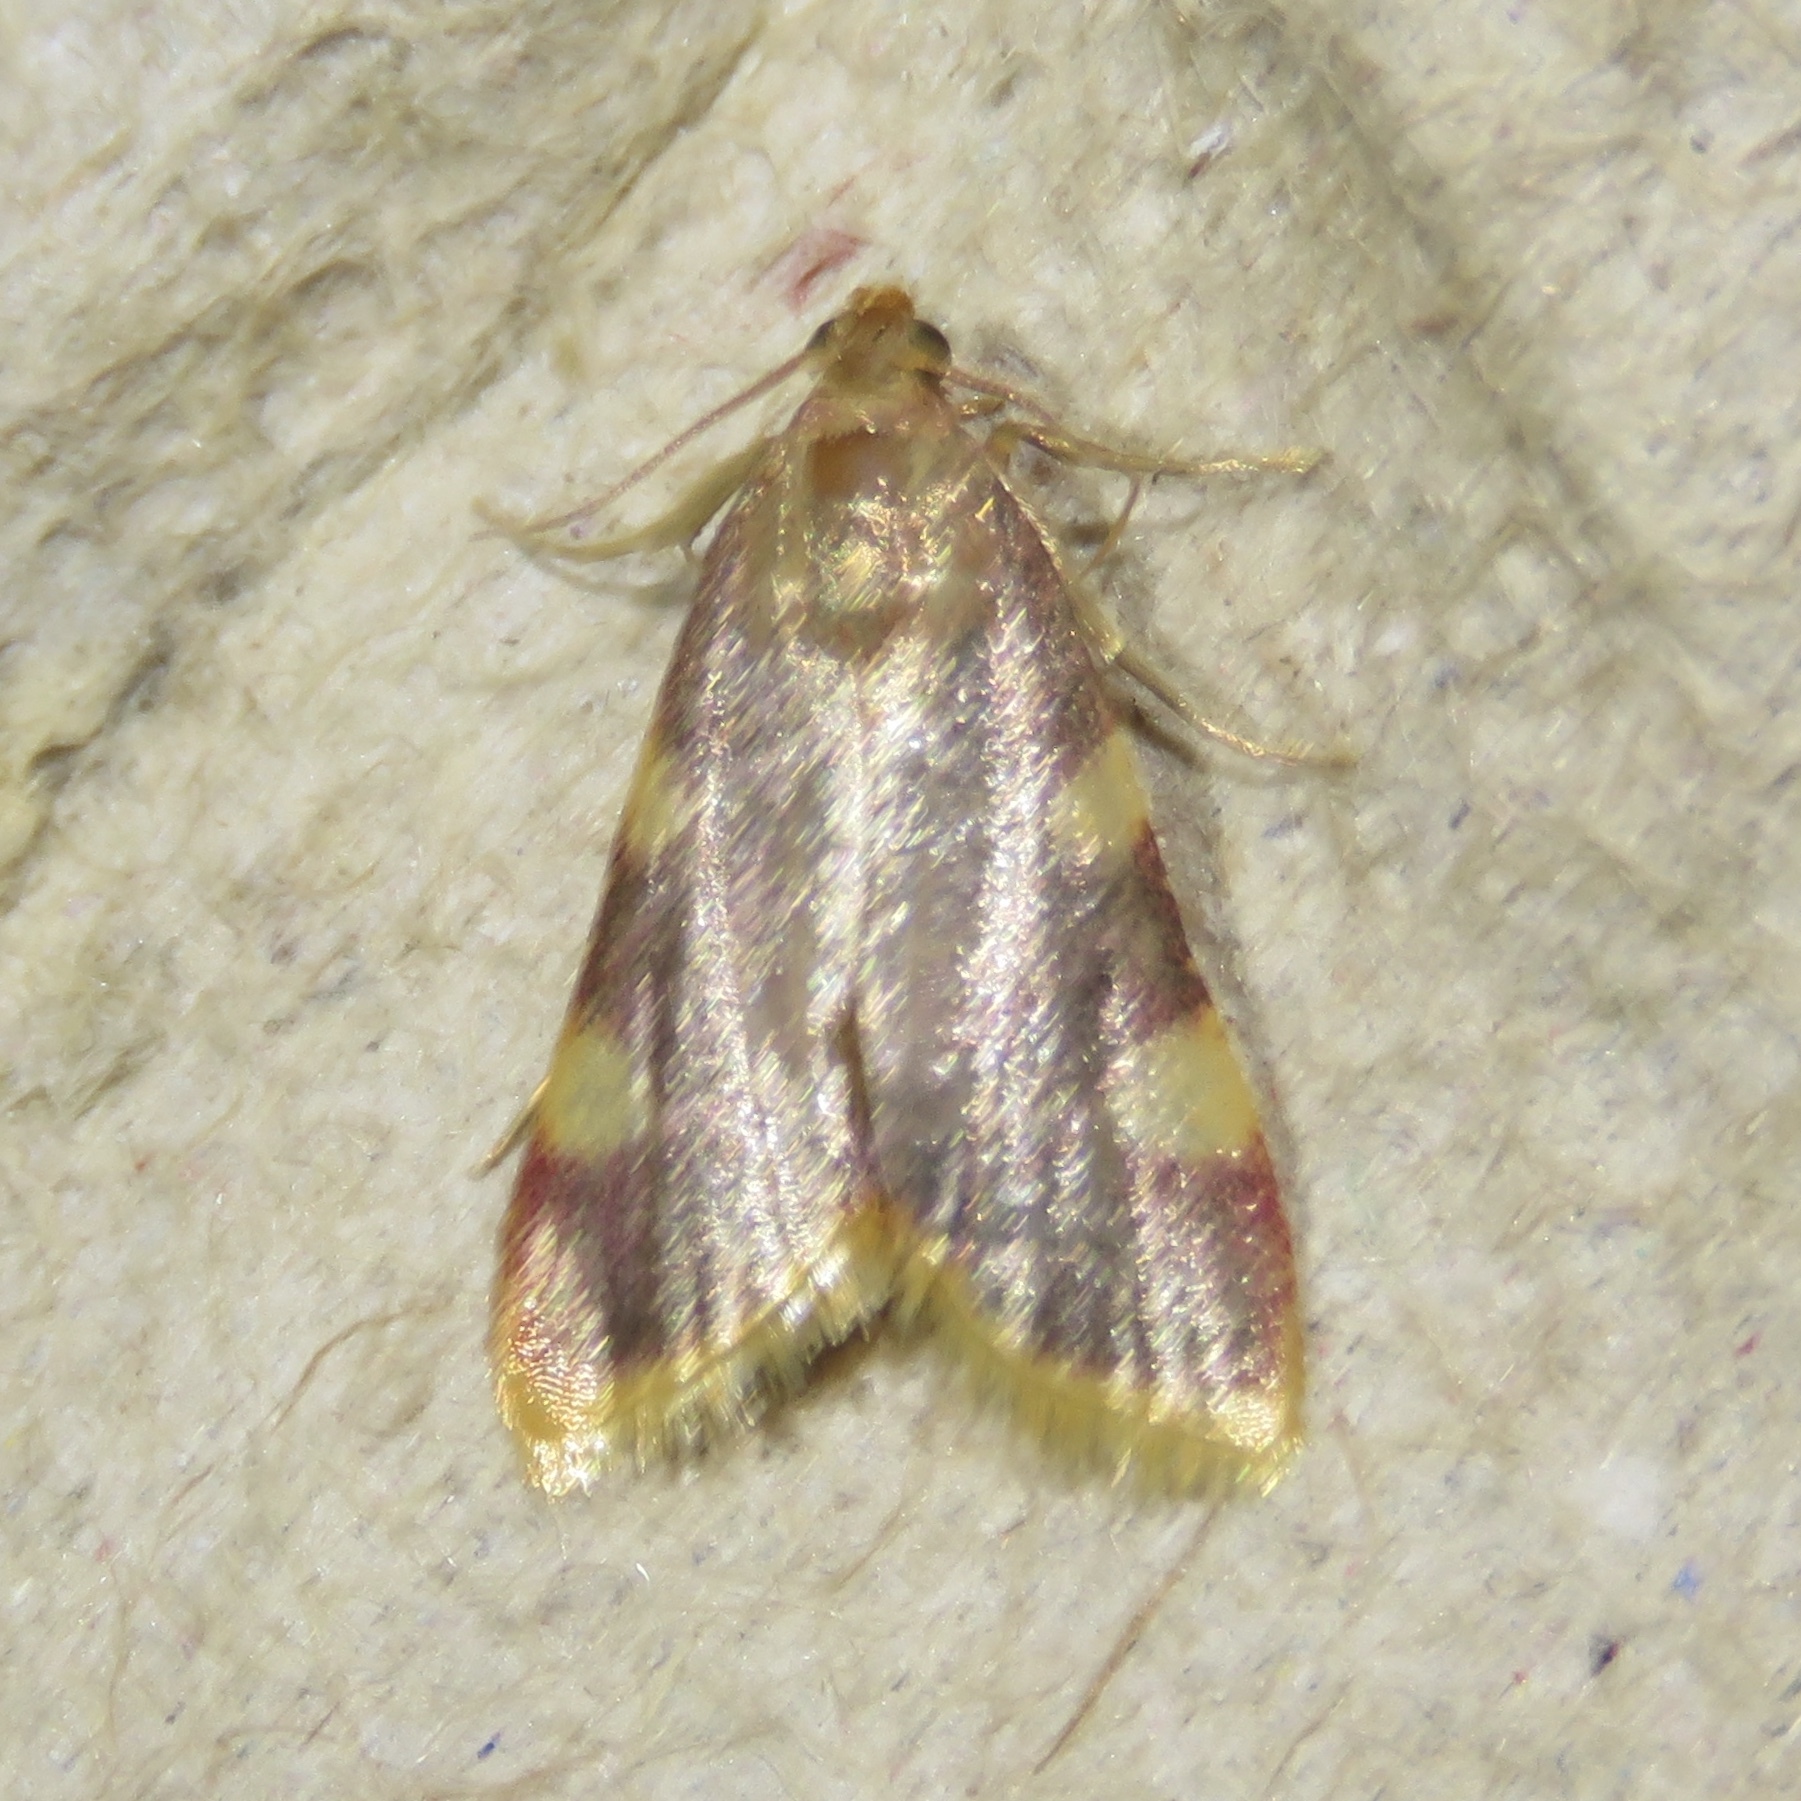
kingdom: Animalia
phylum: Arthropoda
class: Insecta
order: Lepidoptera
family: Pyralidae
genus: Hypsopygia
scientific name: Hypsopygia costalis
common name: Gold triangle
